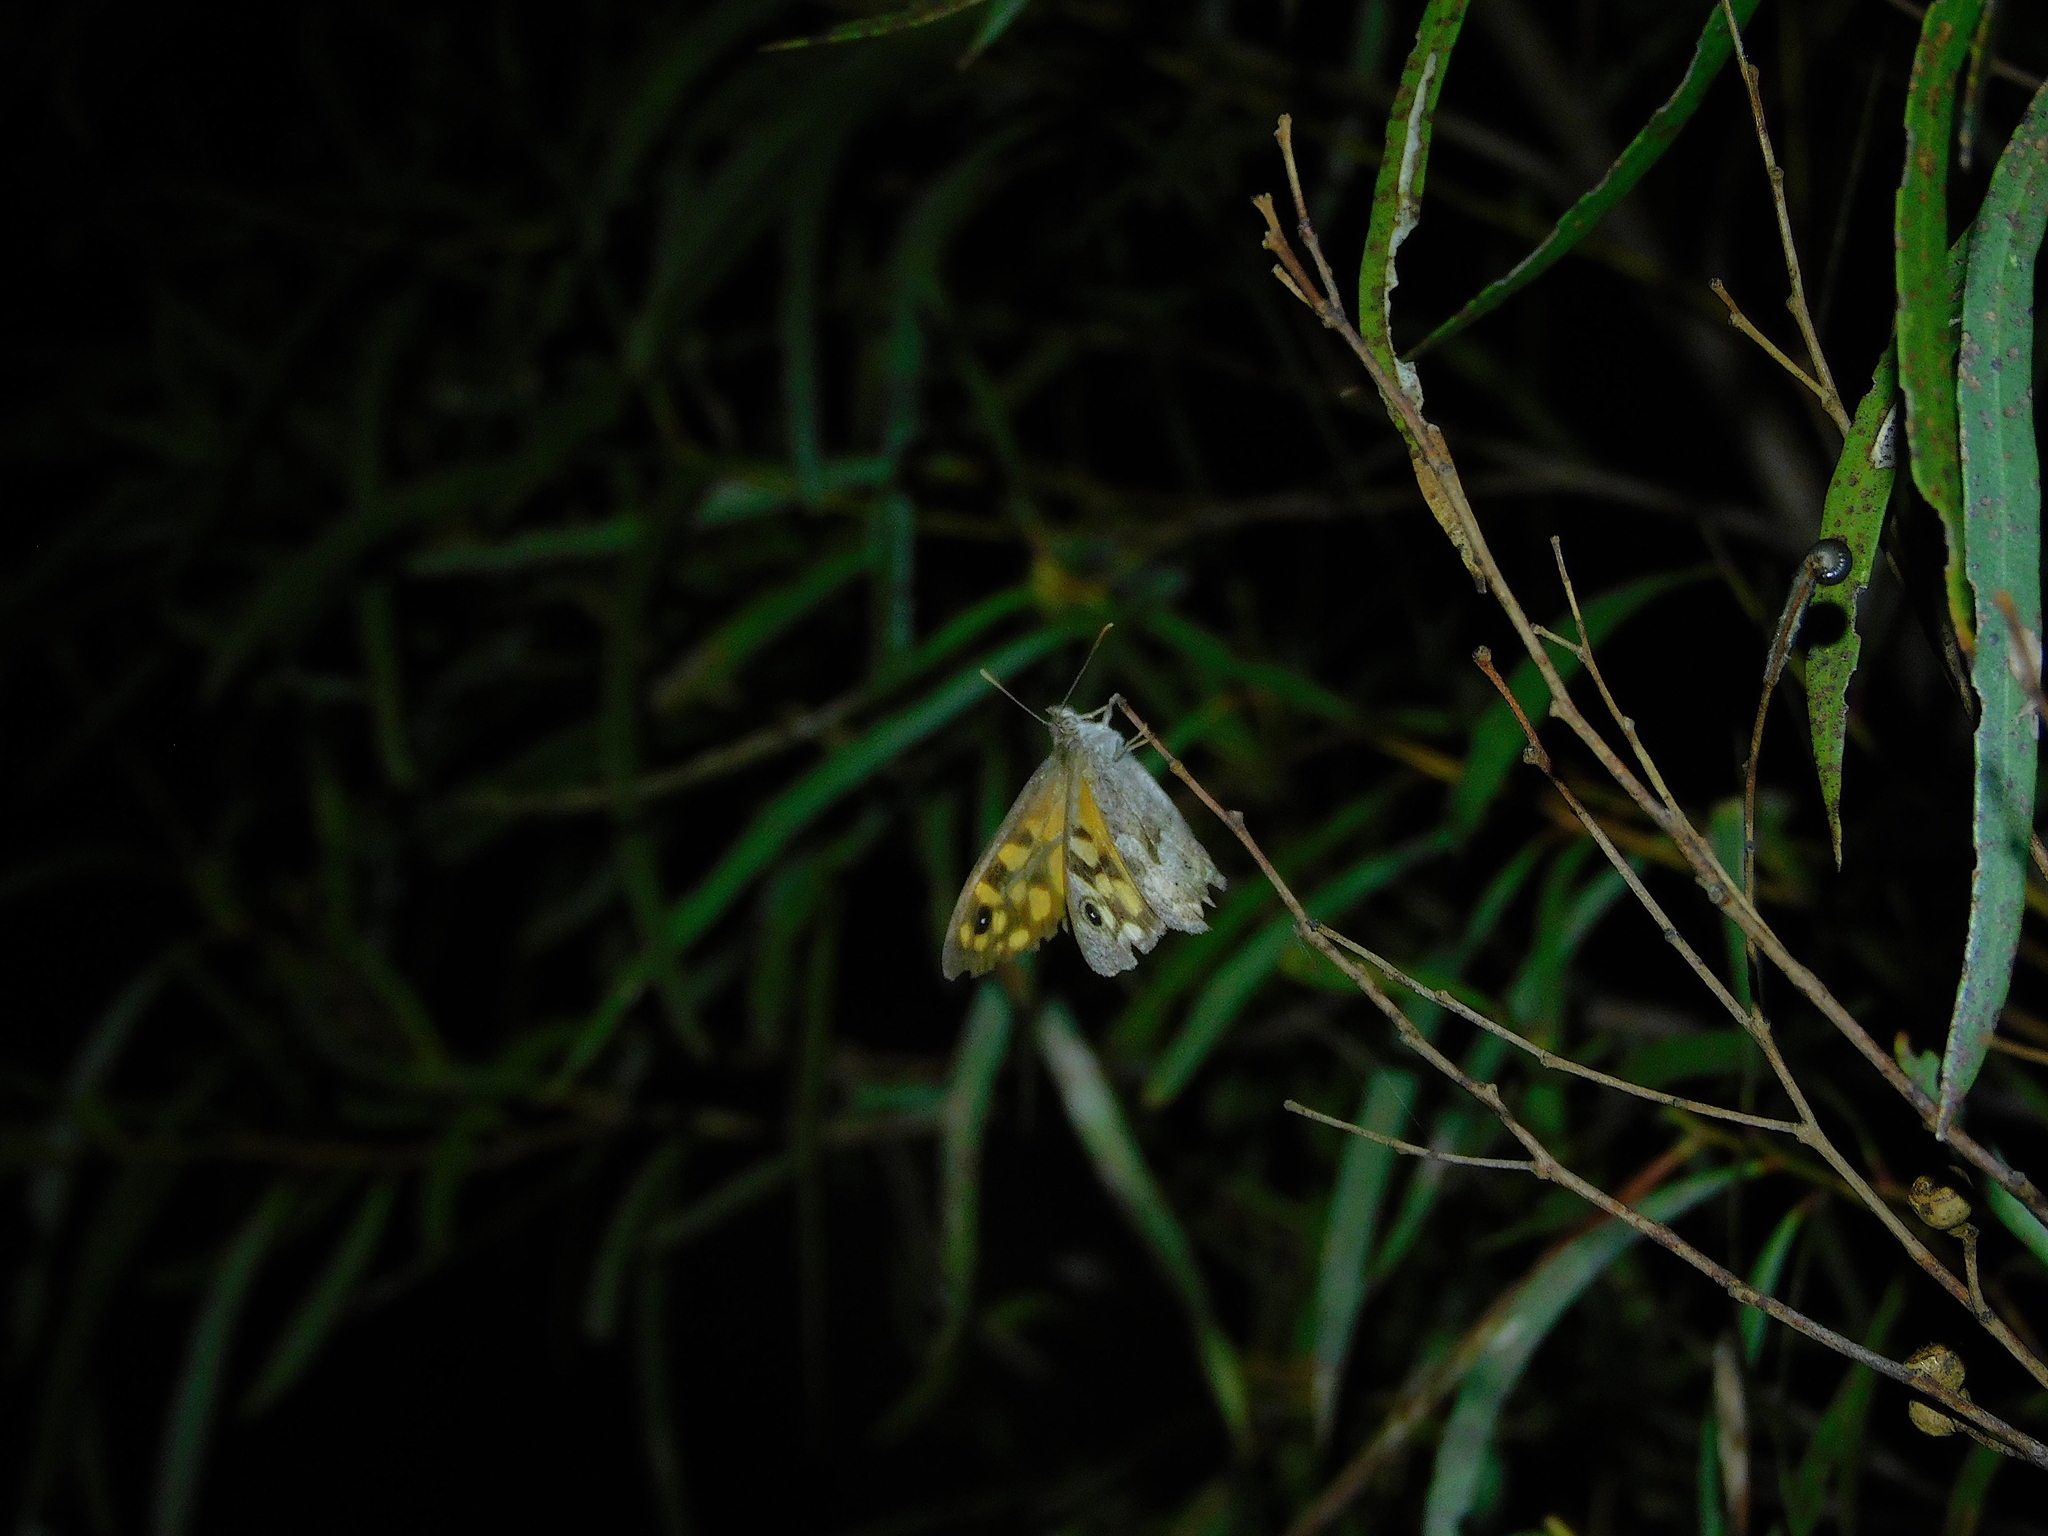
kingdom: Animalia
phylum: Arthropoda
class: Insecta
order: Lepidoptera
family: Nymphalidae
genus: Geitoneura
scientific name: Geitoneura klugii
